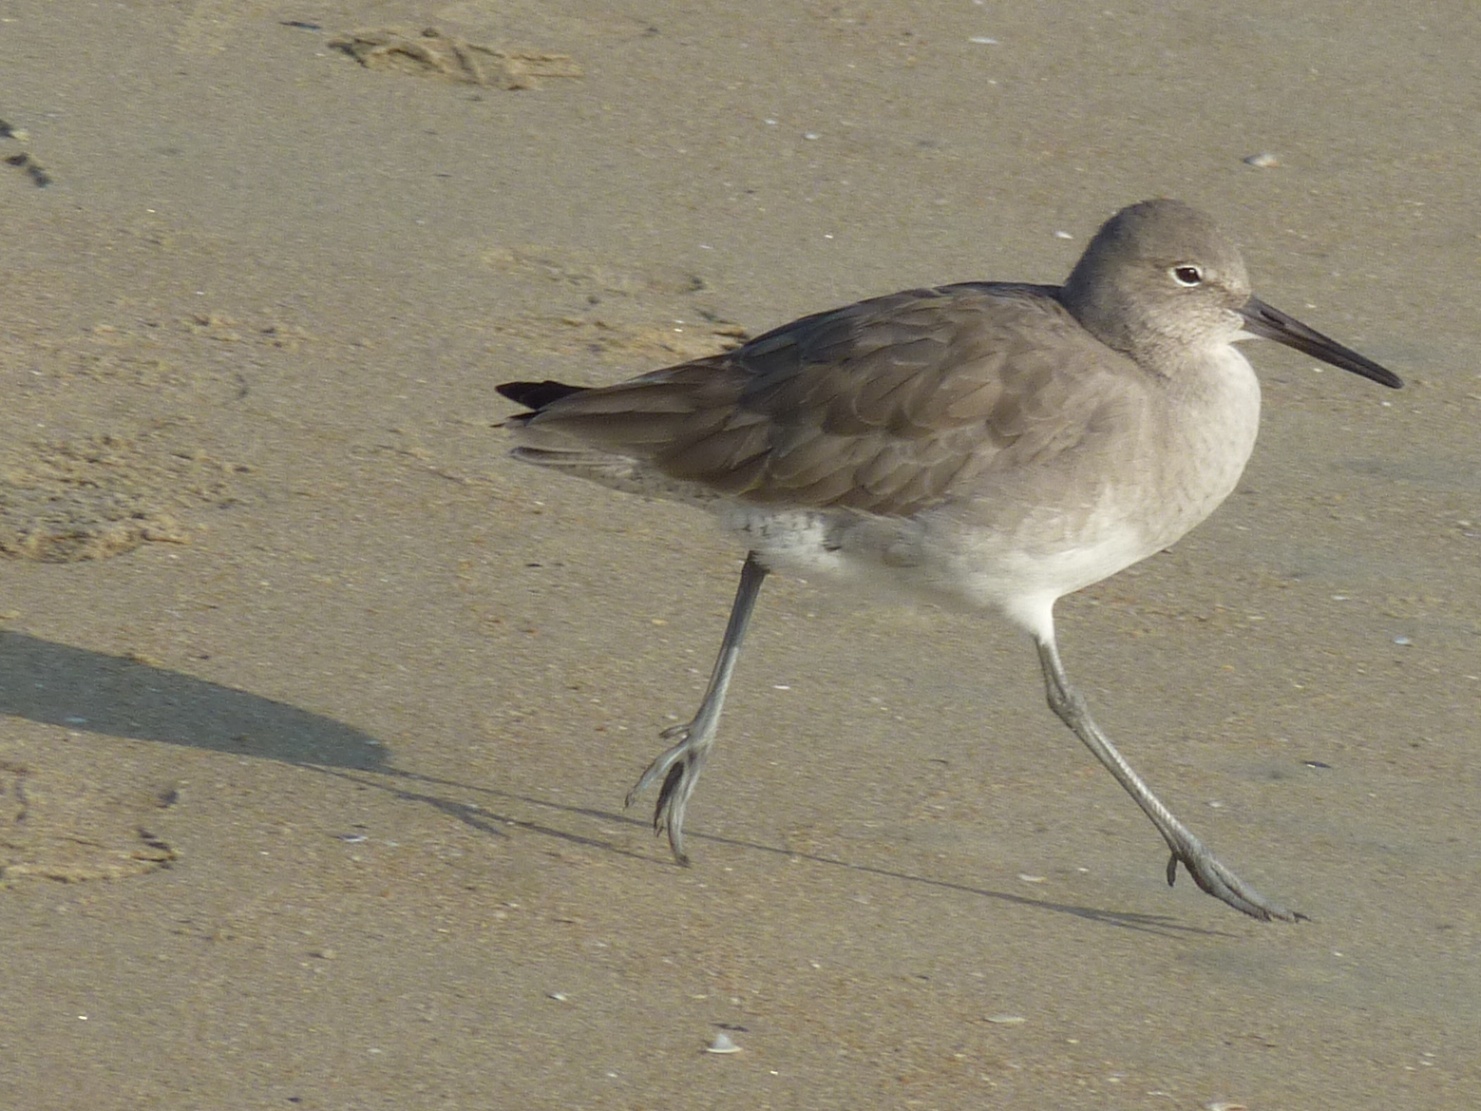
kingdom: Animalia
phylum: Chordata
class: Aves
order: Charadriiformes
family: Scolopacidae
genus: Tringa
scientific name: Tringa semipalmata
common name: Willet
